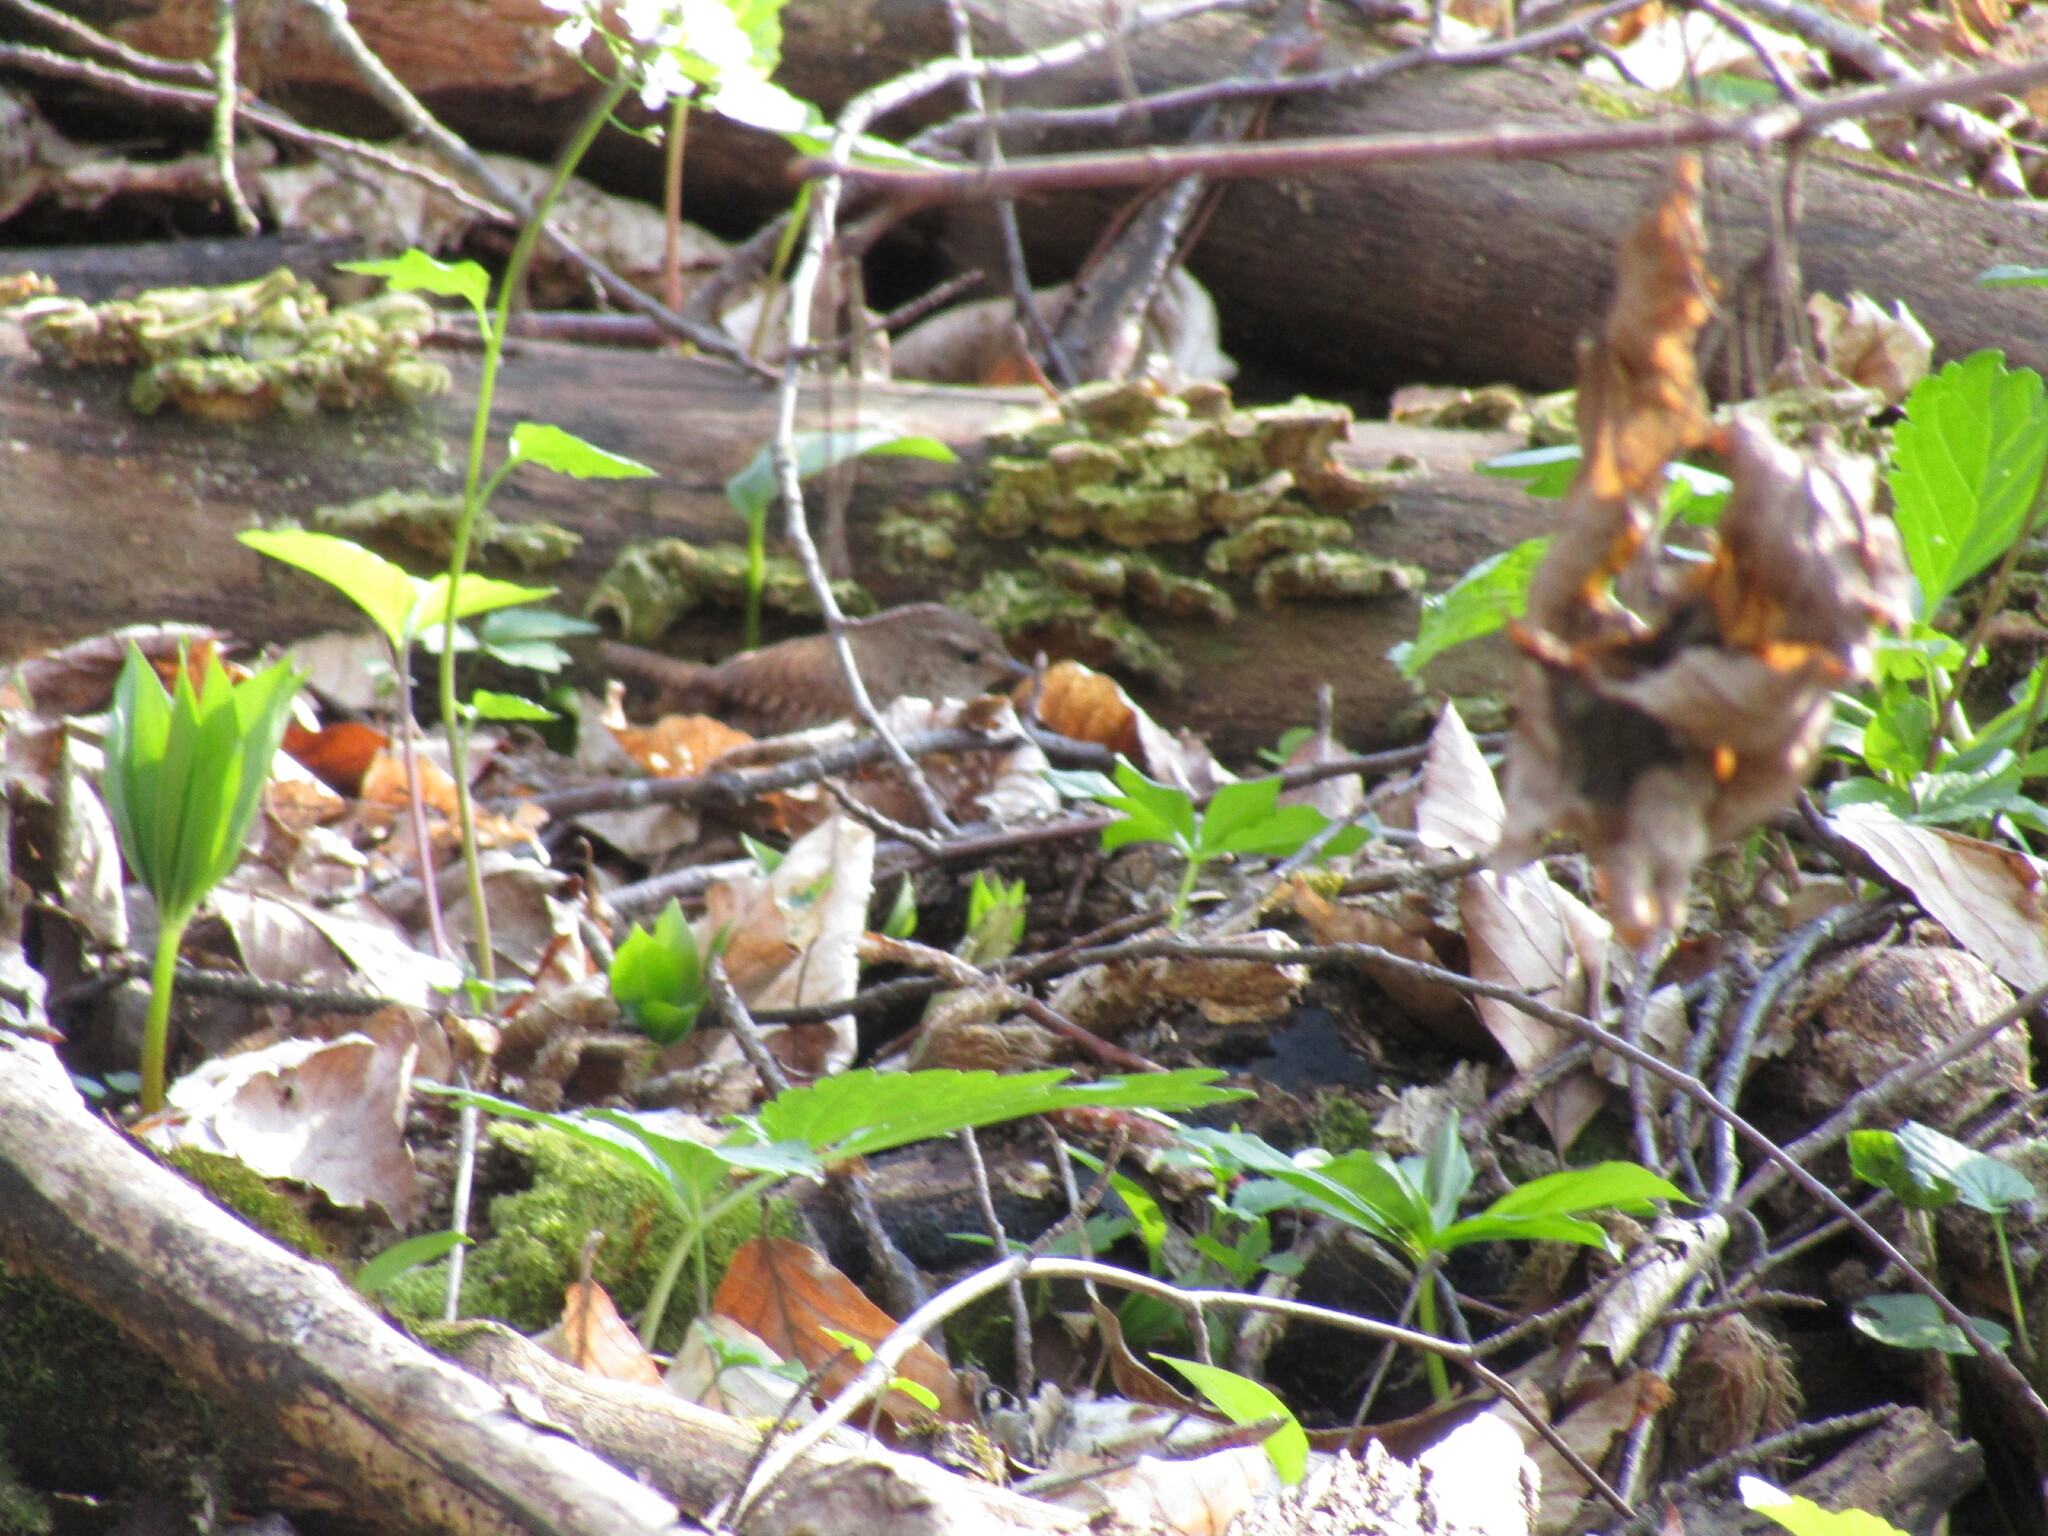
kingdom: Animalia
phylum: Chordata
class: Aves
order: Passeriformes
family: Troglodytidae
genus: Troglodytes
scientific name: Troglodytes troglodytes
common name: Eurasian wren
